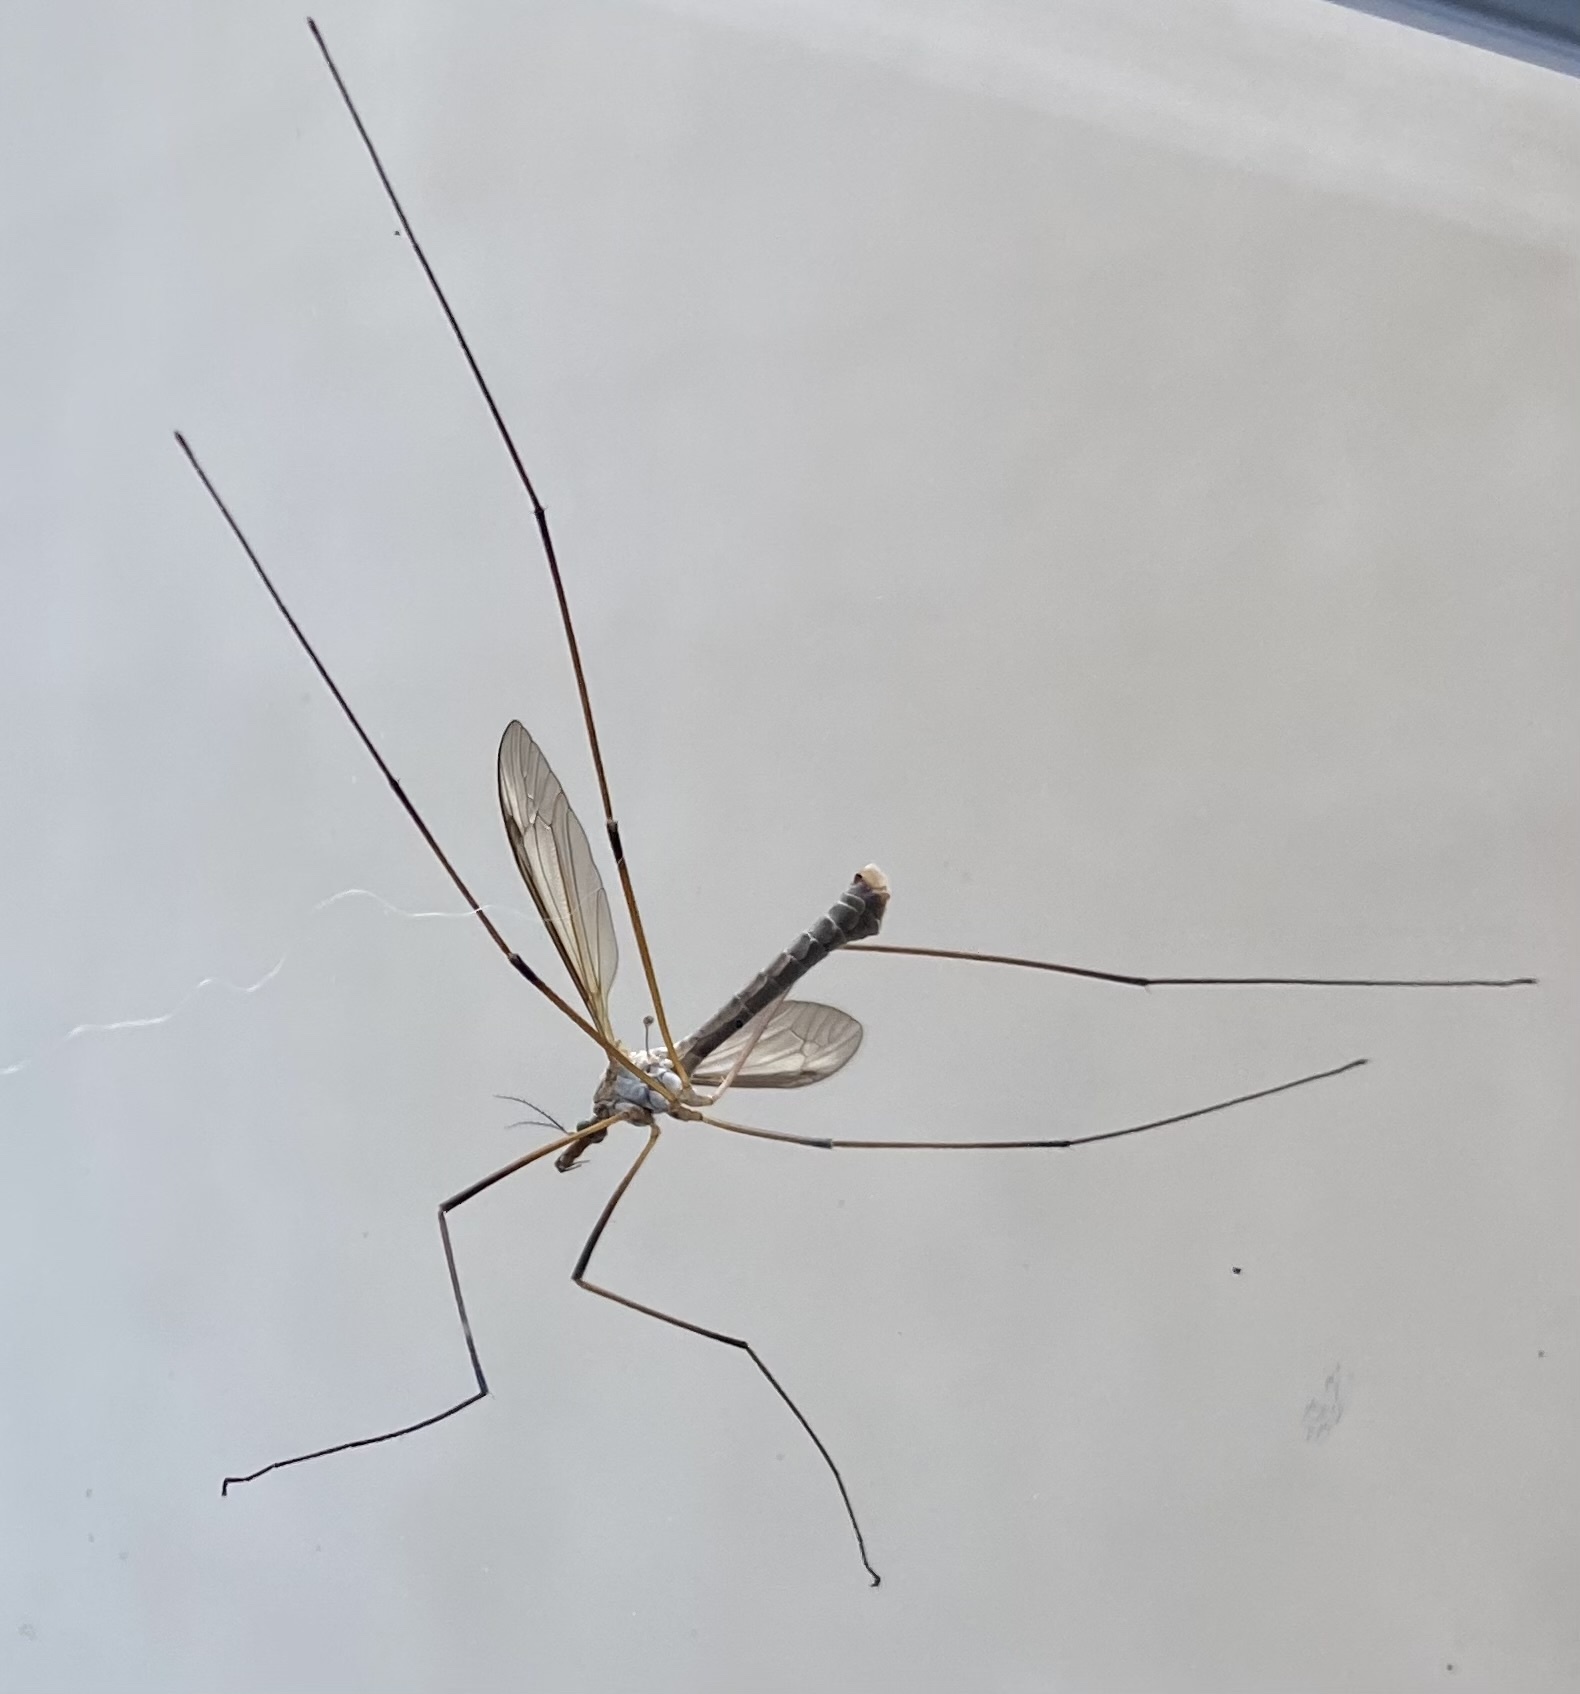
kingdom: Animalia
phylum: Arthropoda
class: Insecta
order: Diptera
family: Tipulidae
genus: Tipula
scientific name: Tipula paludosa
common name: European cranefly
